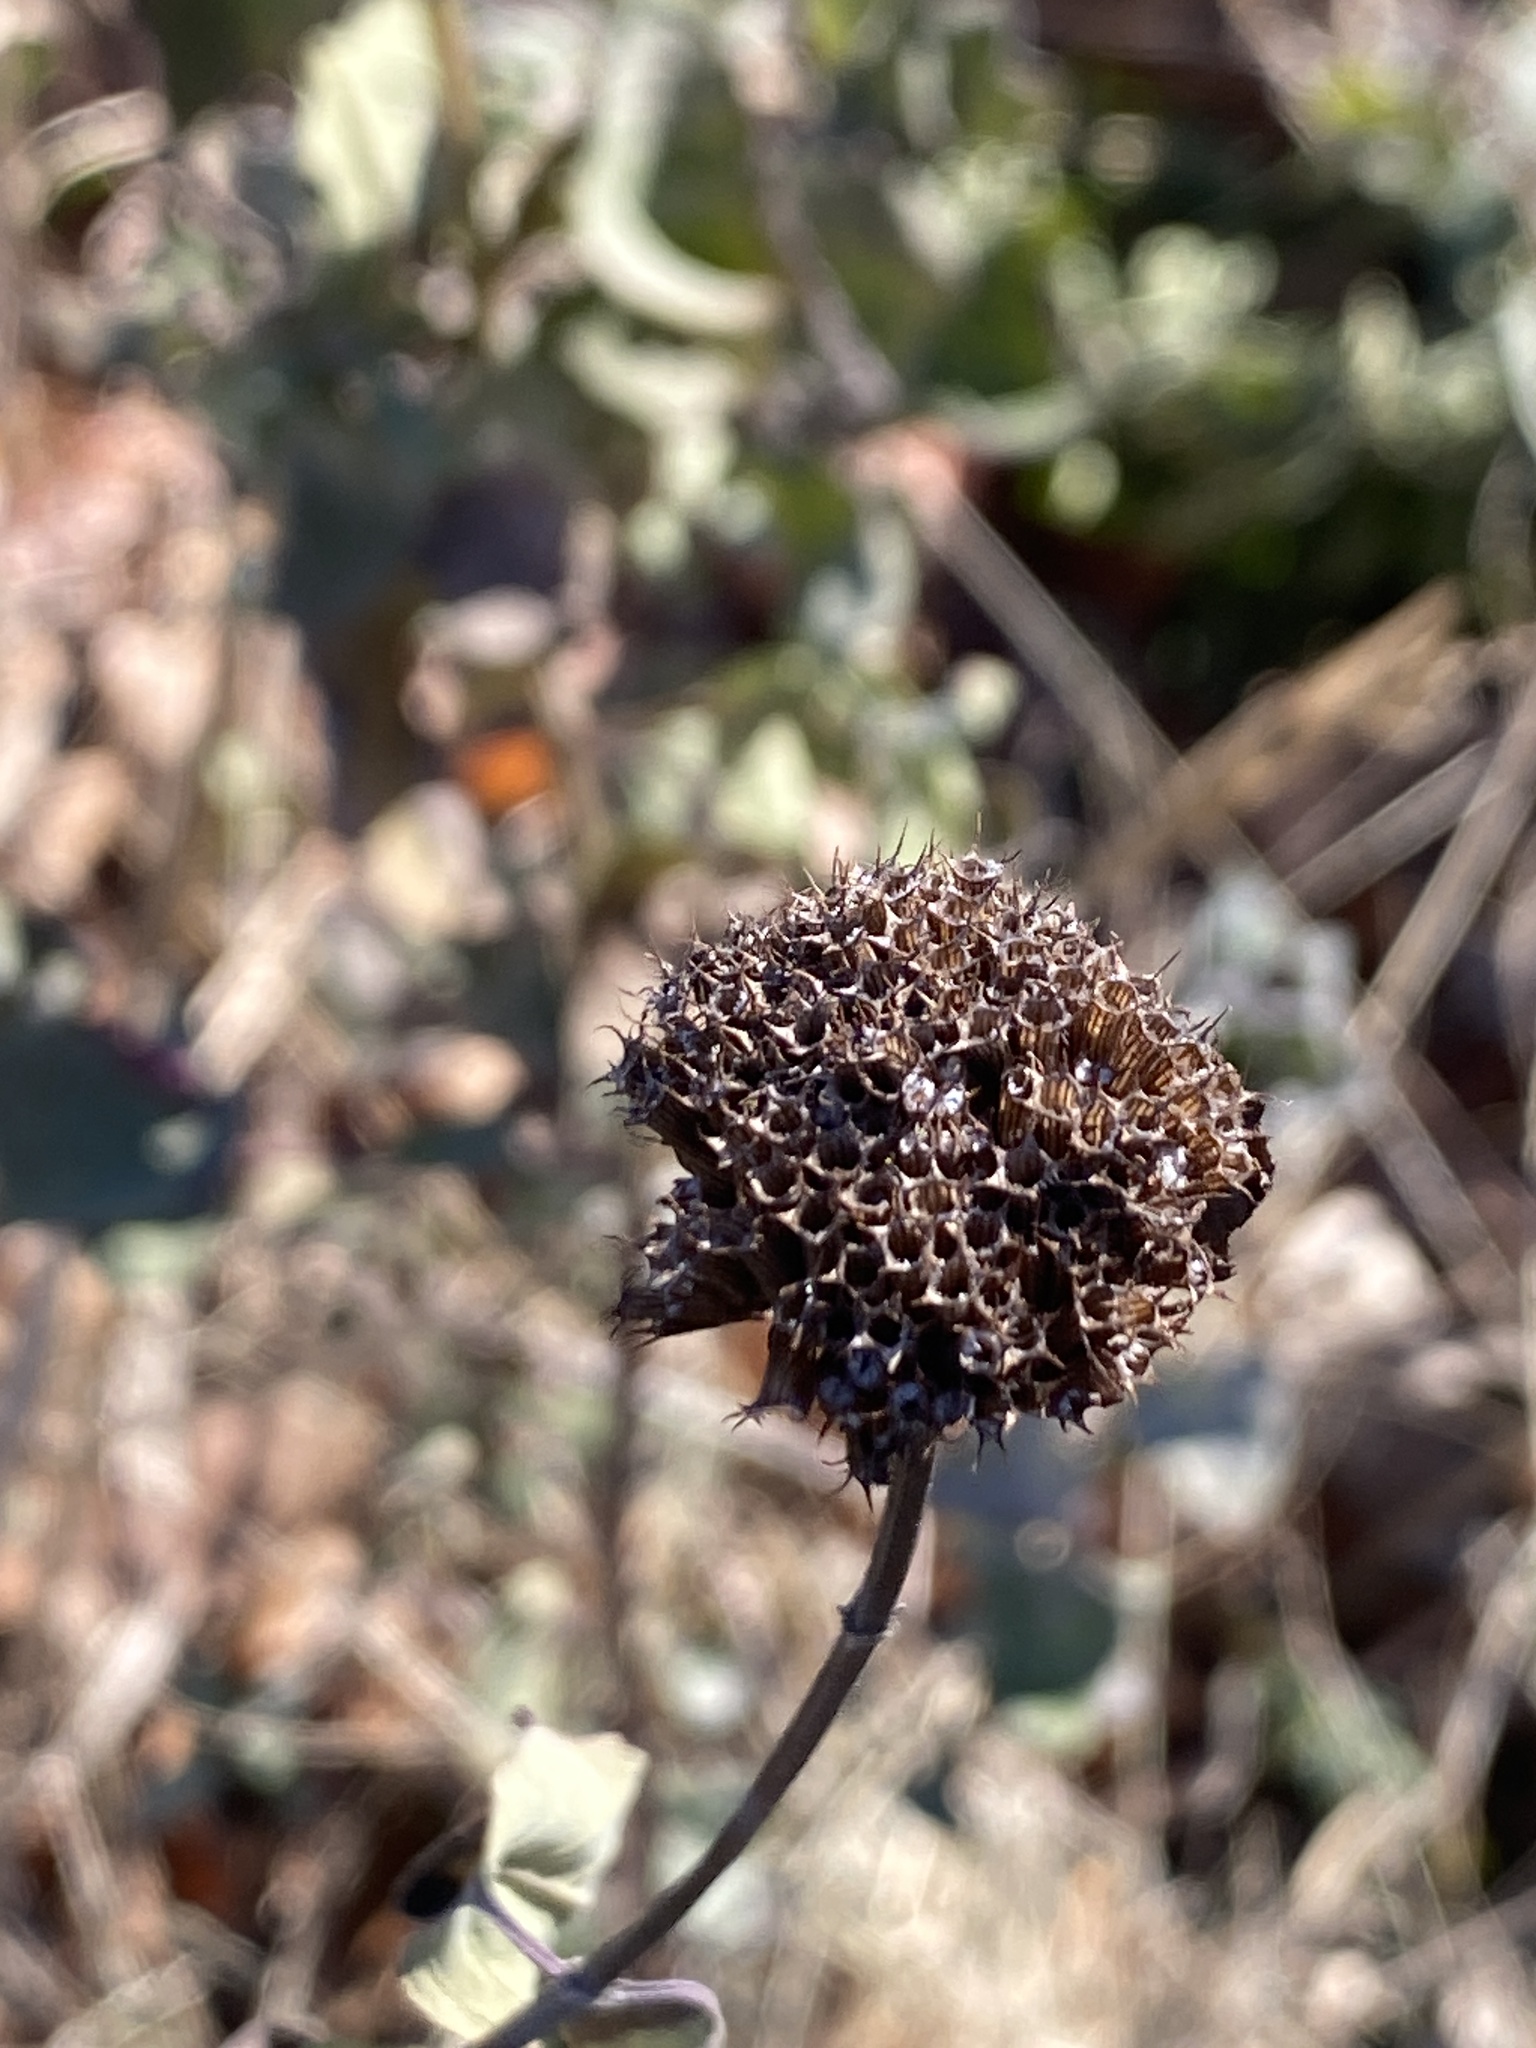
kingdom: Plantae
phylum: Tracheophyta
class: Magnoliopsida
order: Lamiales
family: Lamiaceae
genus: Monarda
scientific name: Monarda fistulosa
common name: Purple beebalm
